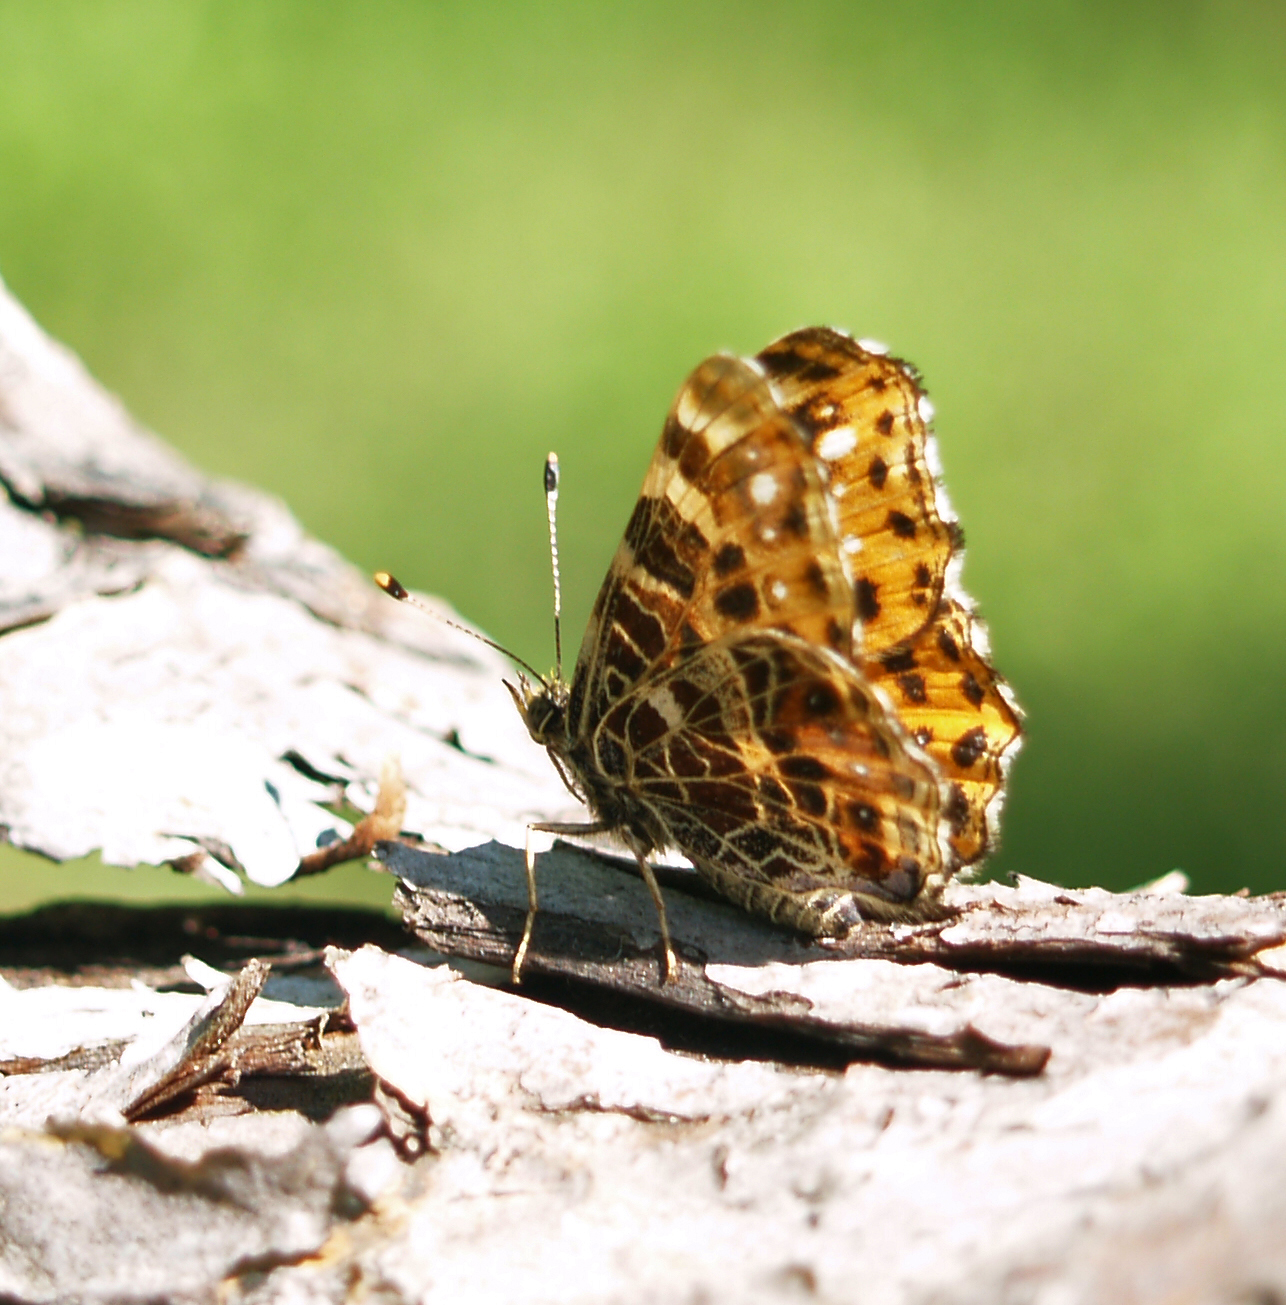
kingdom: Animalia
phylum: Arthropoda
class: Insecta
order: Lepidoptera
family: Nymphalidae
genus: Araschnia
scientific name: Araschnia levana
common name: Map butterfly
